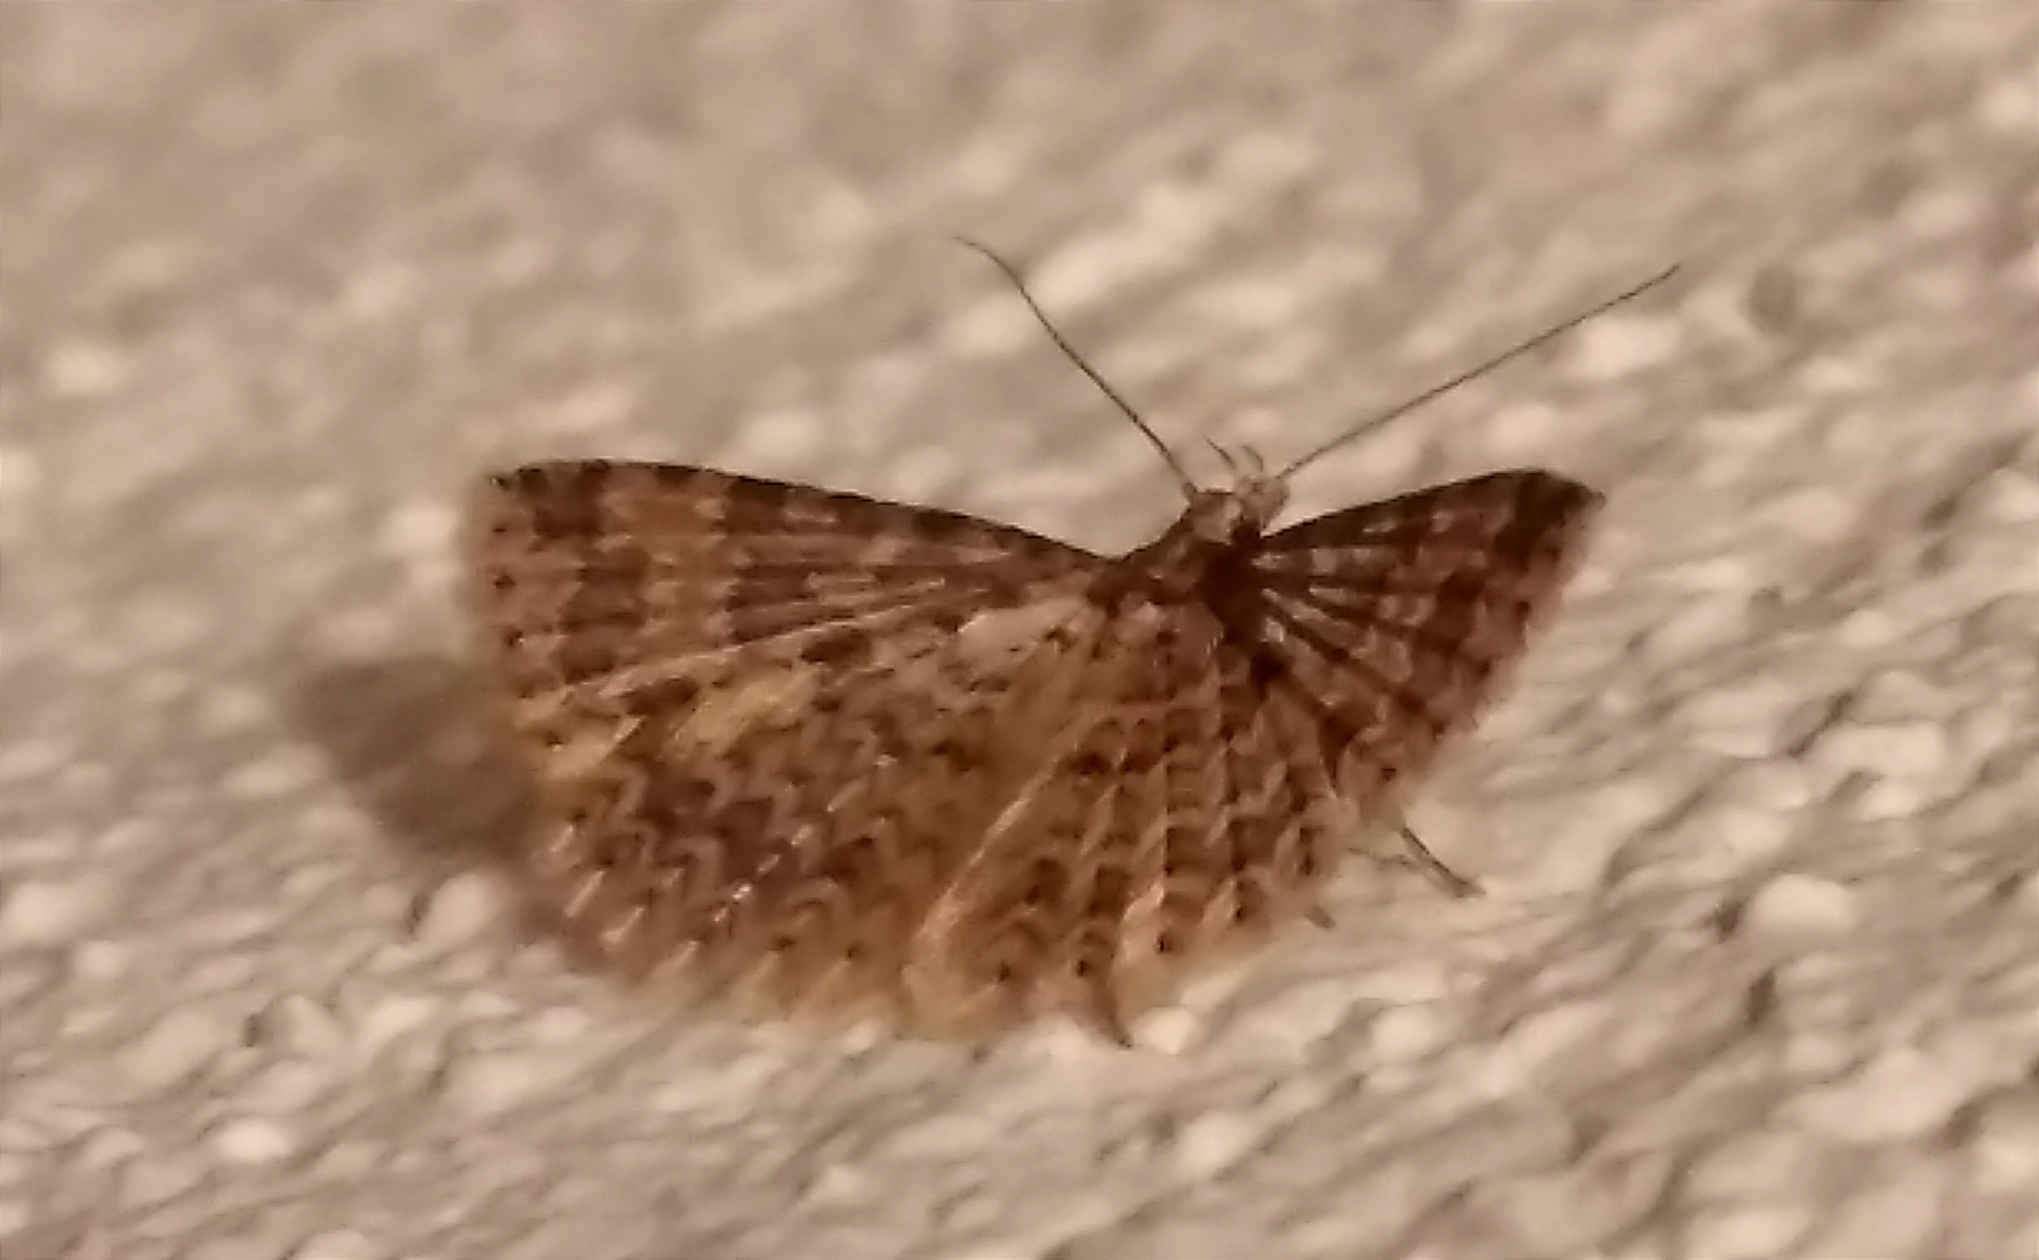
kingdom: Animalia
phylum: Arthropoda
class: Insecta
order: Lepidoptera
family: Alucitidae
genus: Alucita
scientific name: Alucita huebneri
